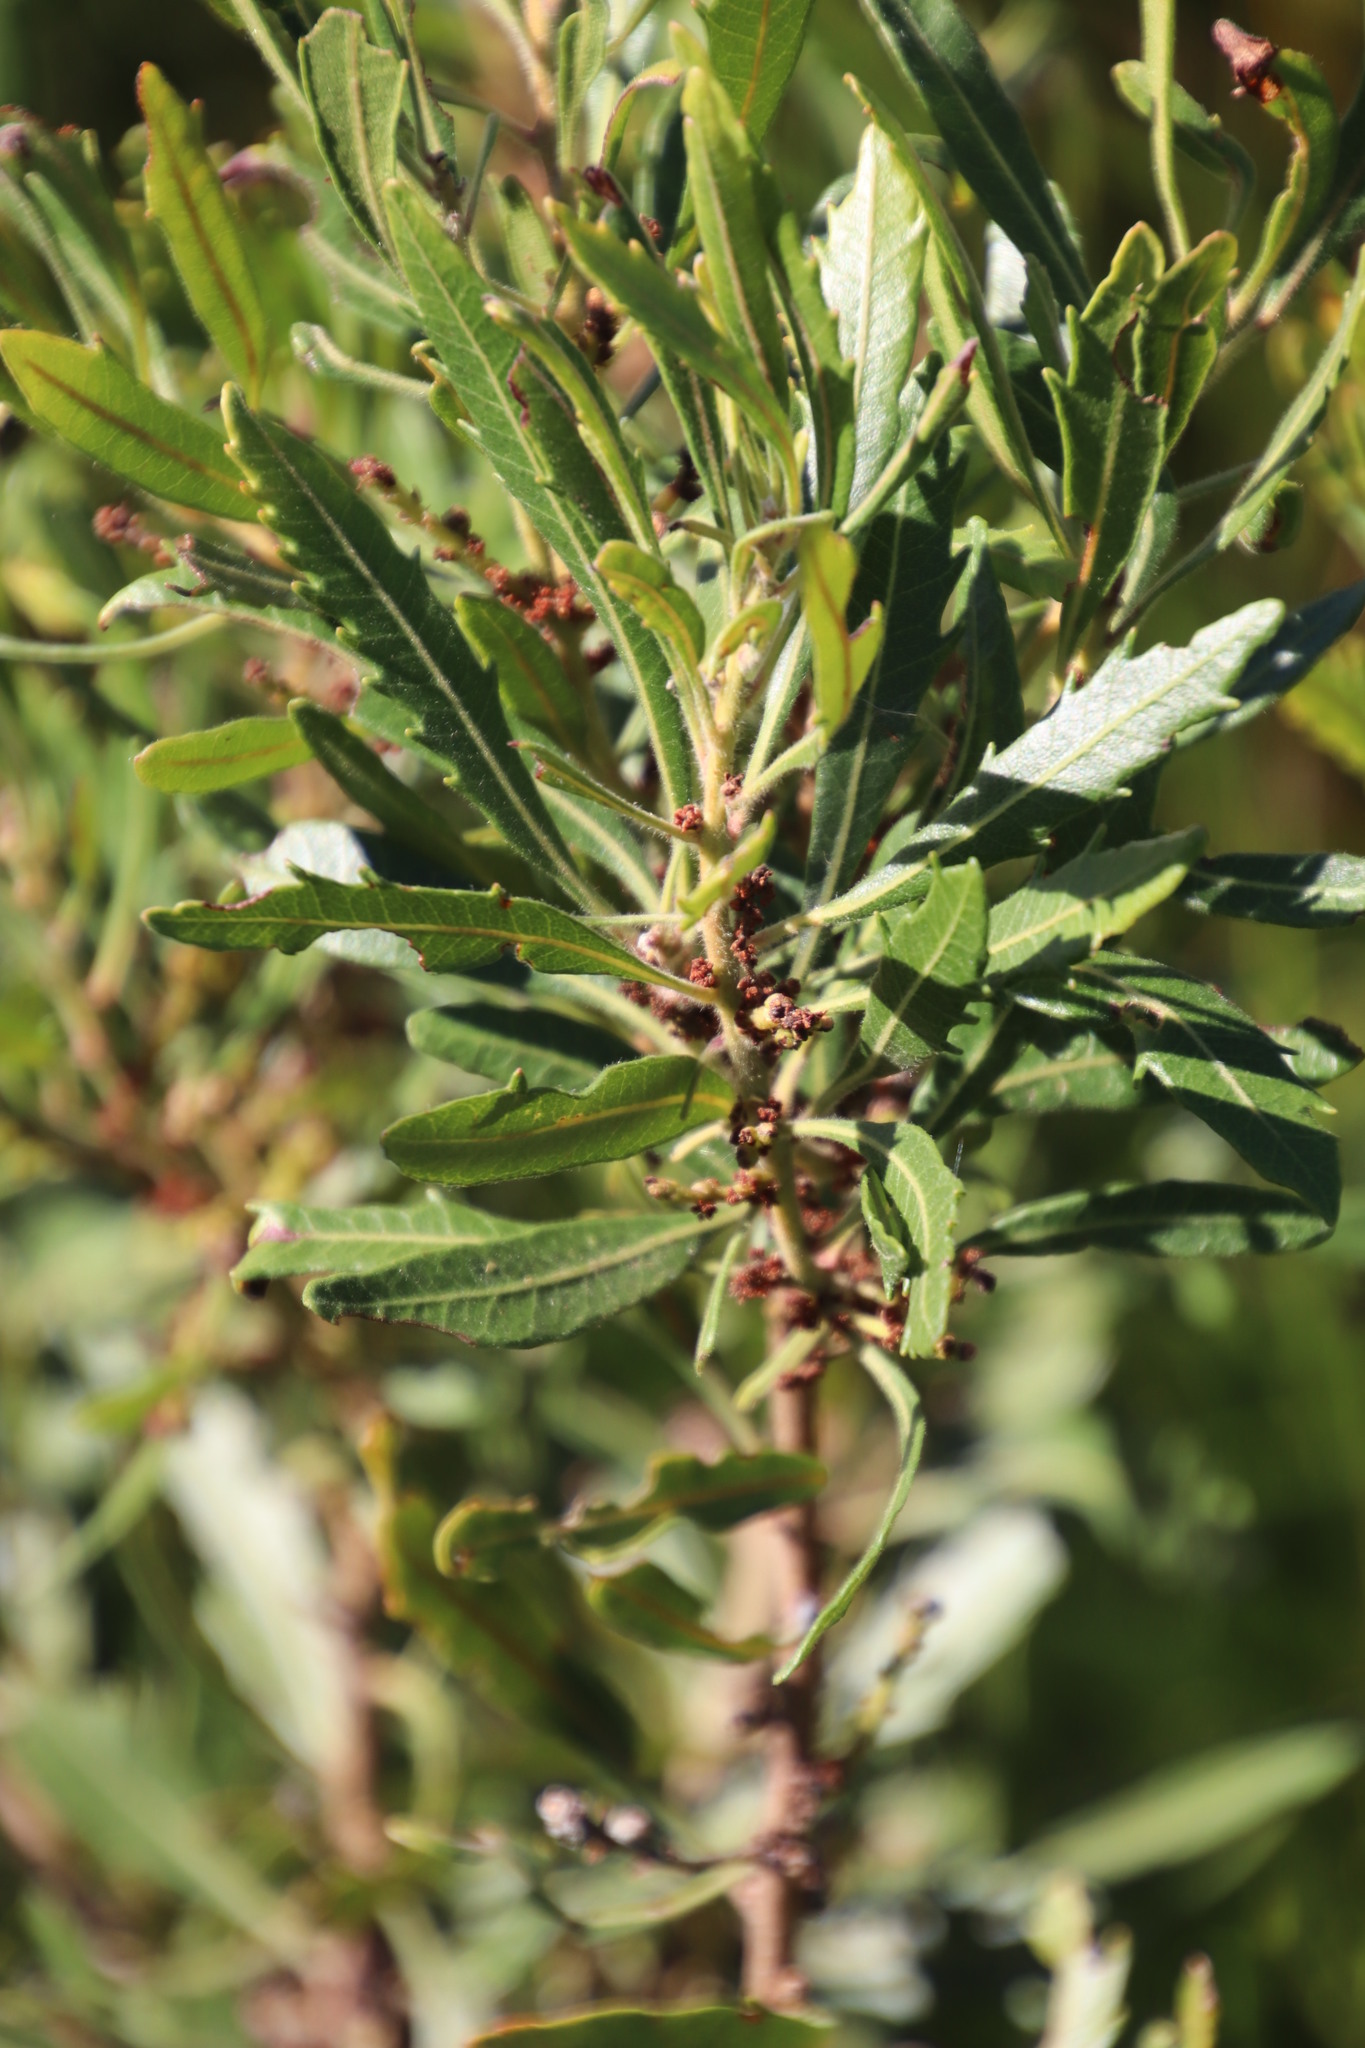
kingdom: Plantae
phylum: Tracheophyta
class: Magnoliopsida
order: Fagales
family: Myricaceae
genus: Morella
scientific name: Morella serrata
